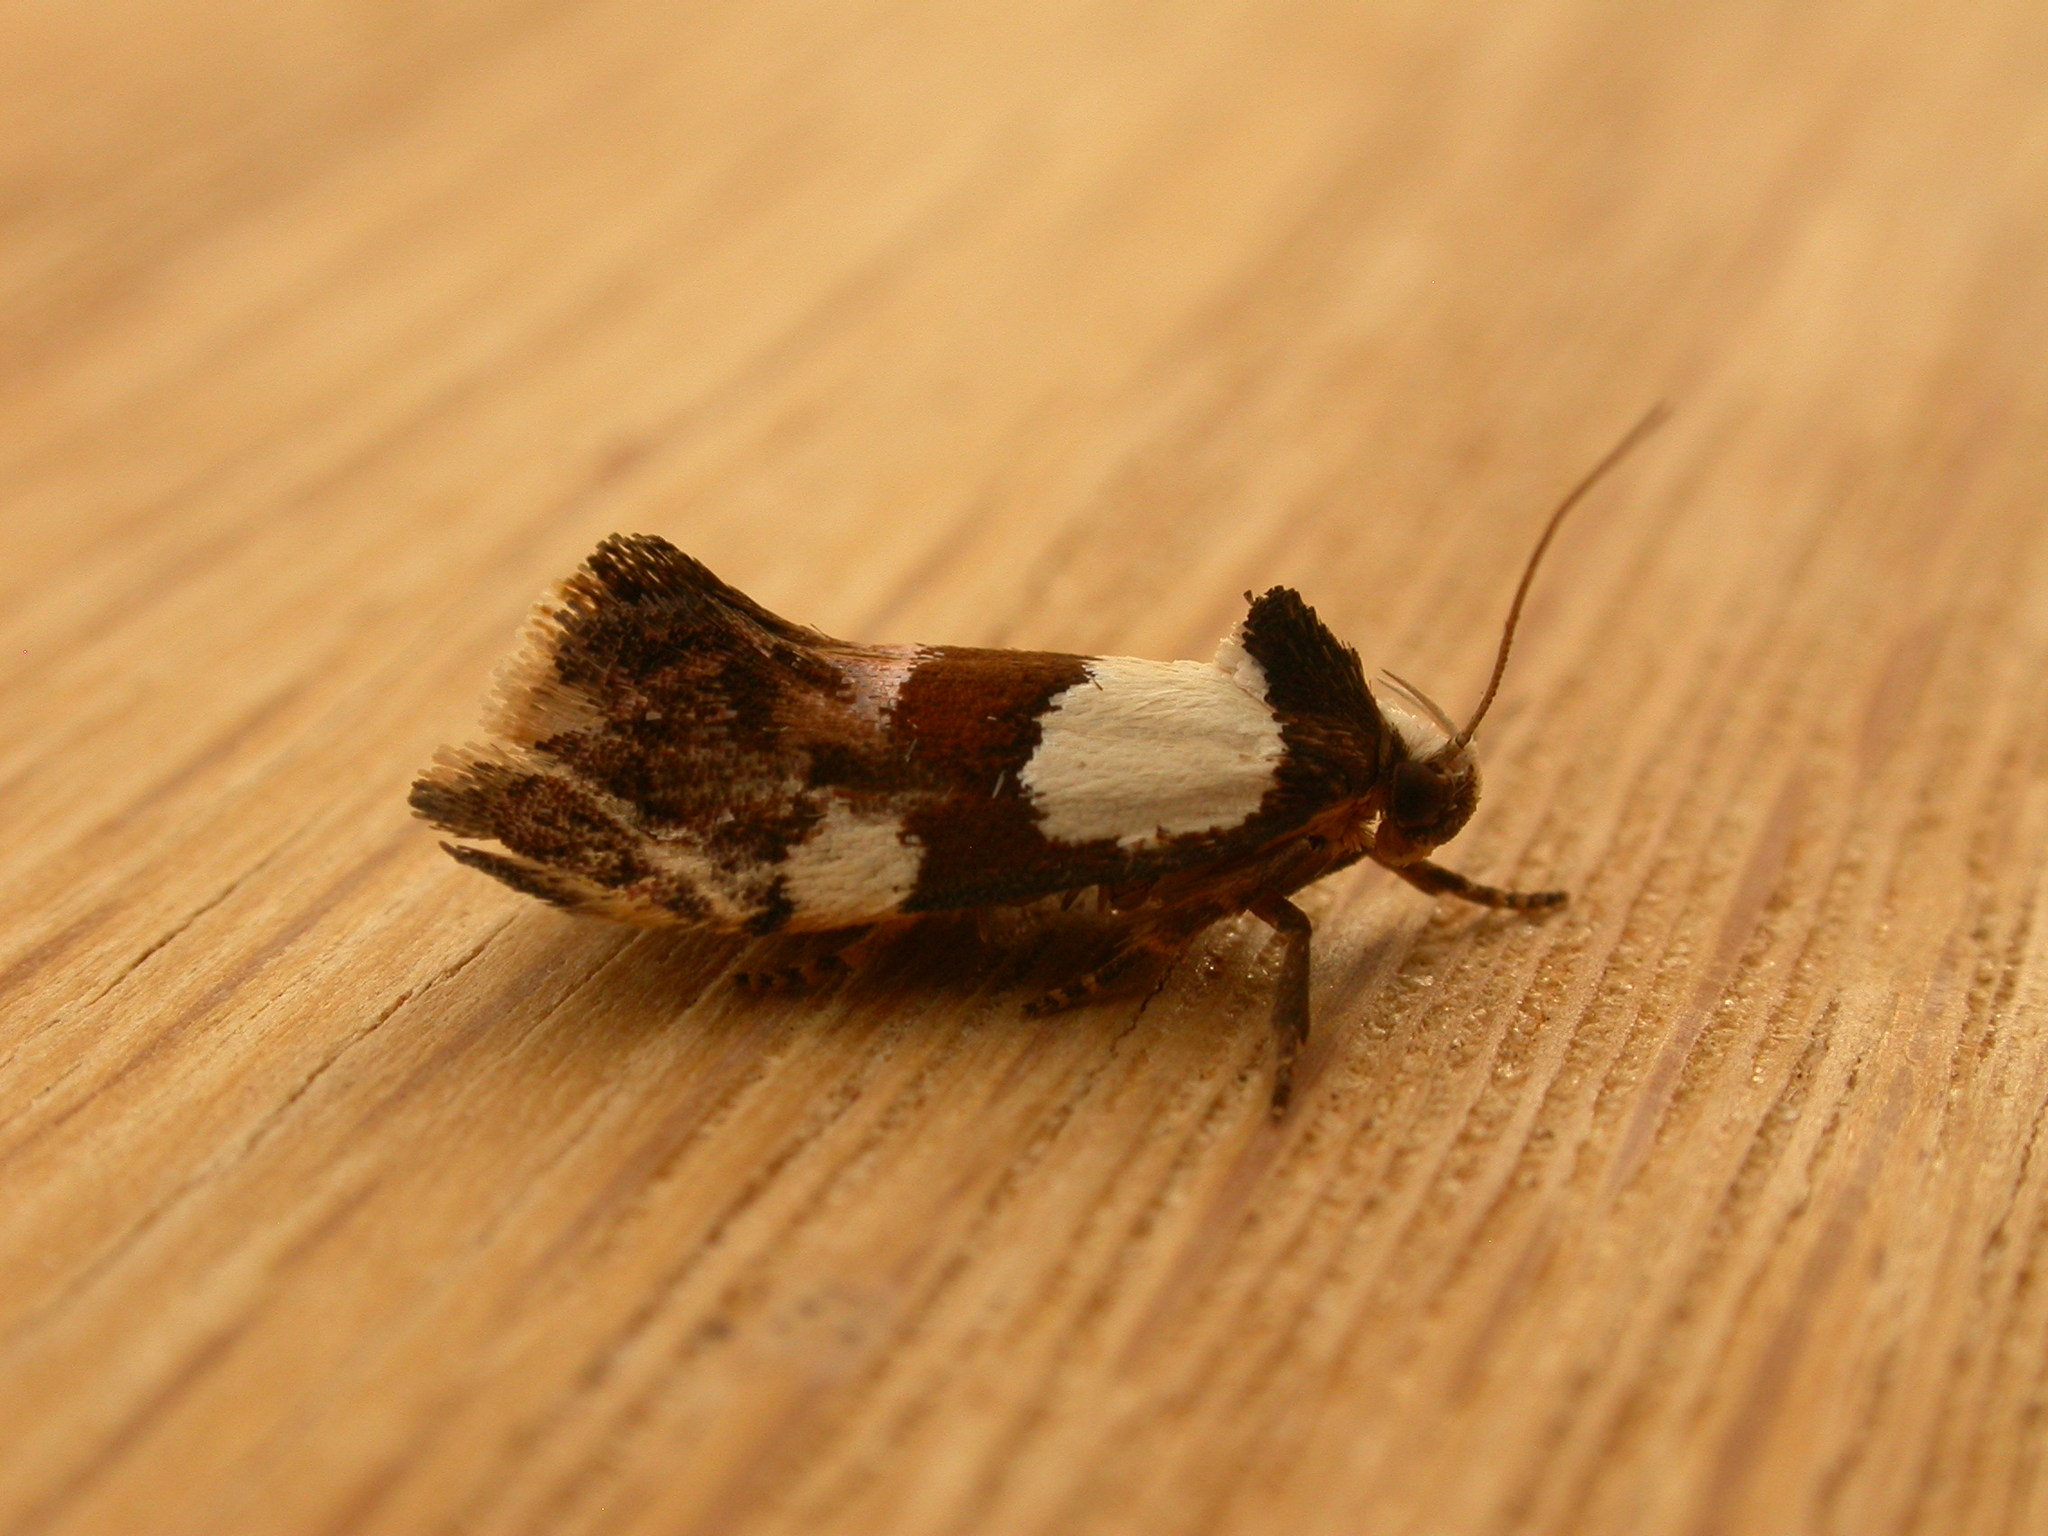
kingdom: Animalia
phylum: Arthropoda
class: Insecta
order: Lepidoptera
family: Oecophoridae
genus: Placocosma
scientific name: Placocosma resumptella
